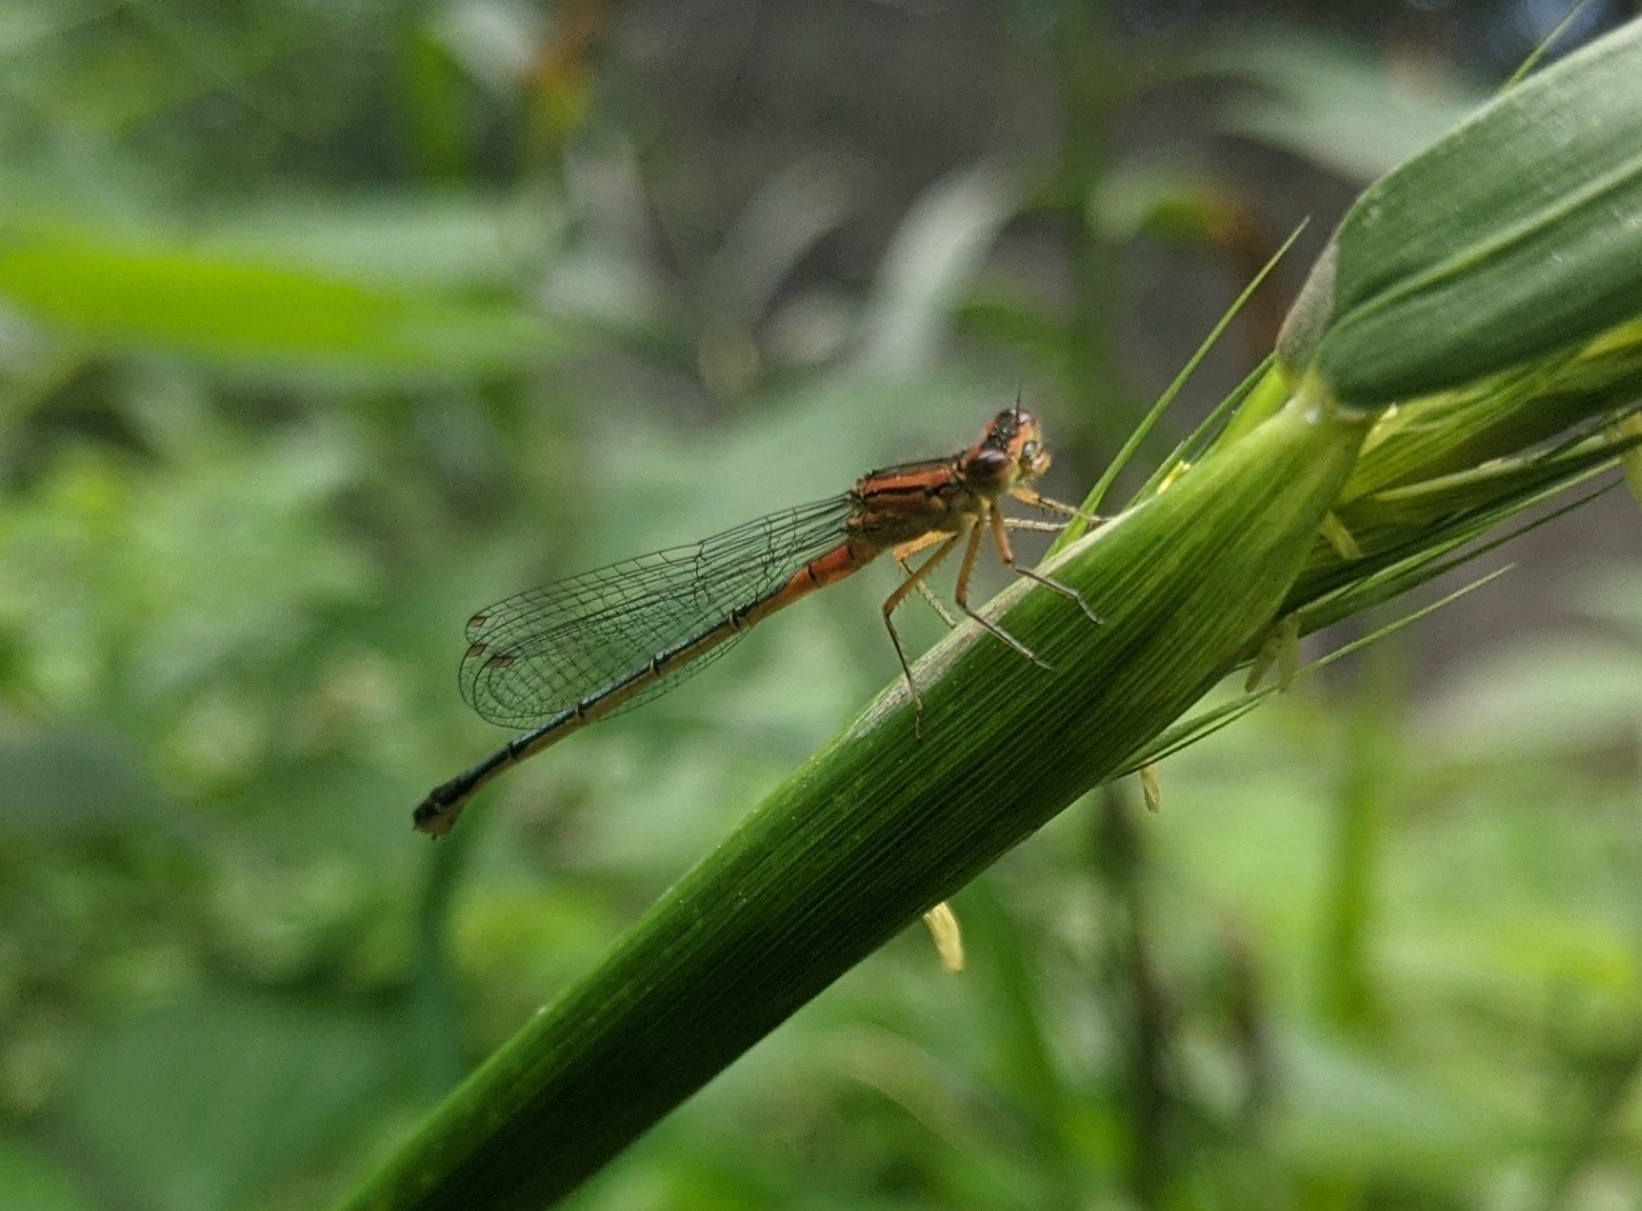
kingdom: Animalia
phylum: Arthropoda
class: Insecta
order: Odonata
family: Coenagrionidae
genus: Ischnura
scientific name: Ischnura verticalis
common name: Eastern forktail
